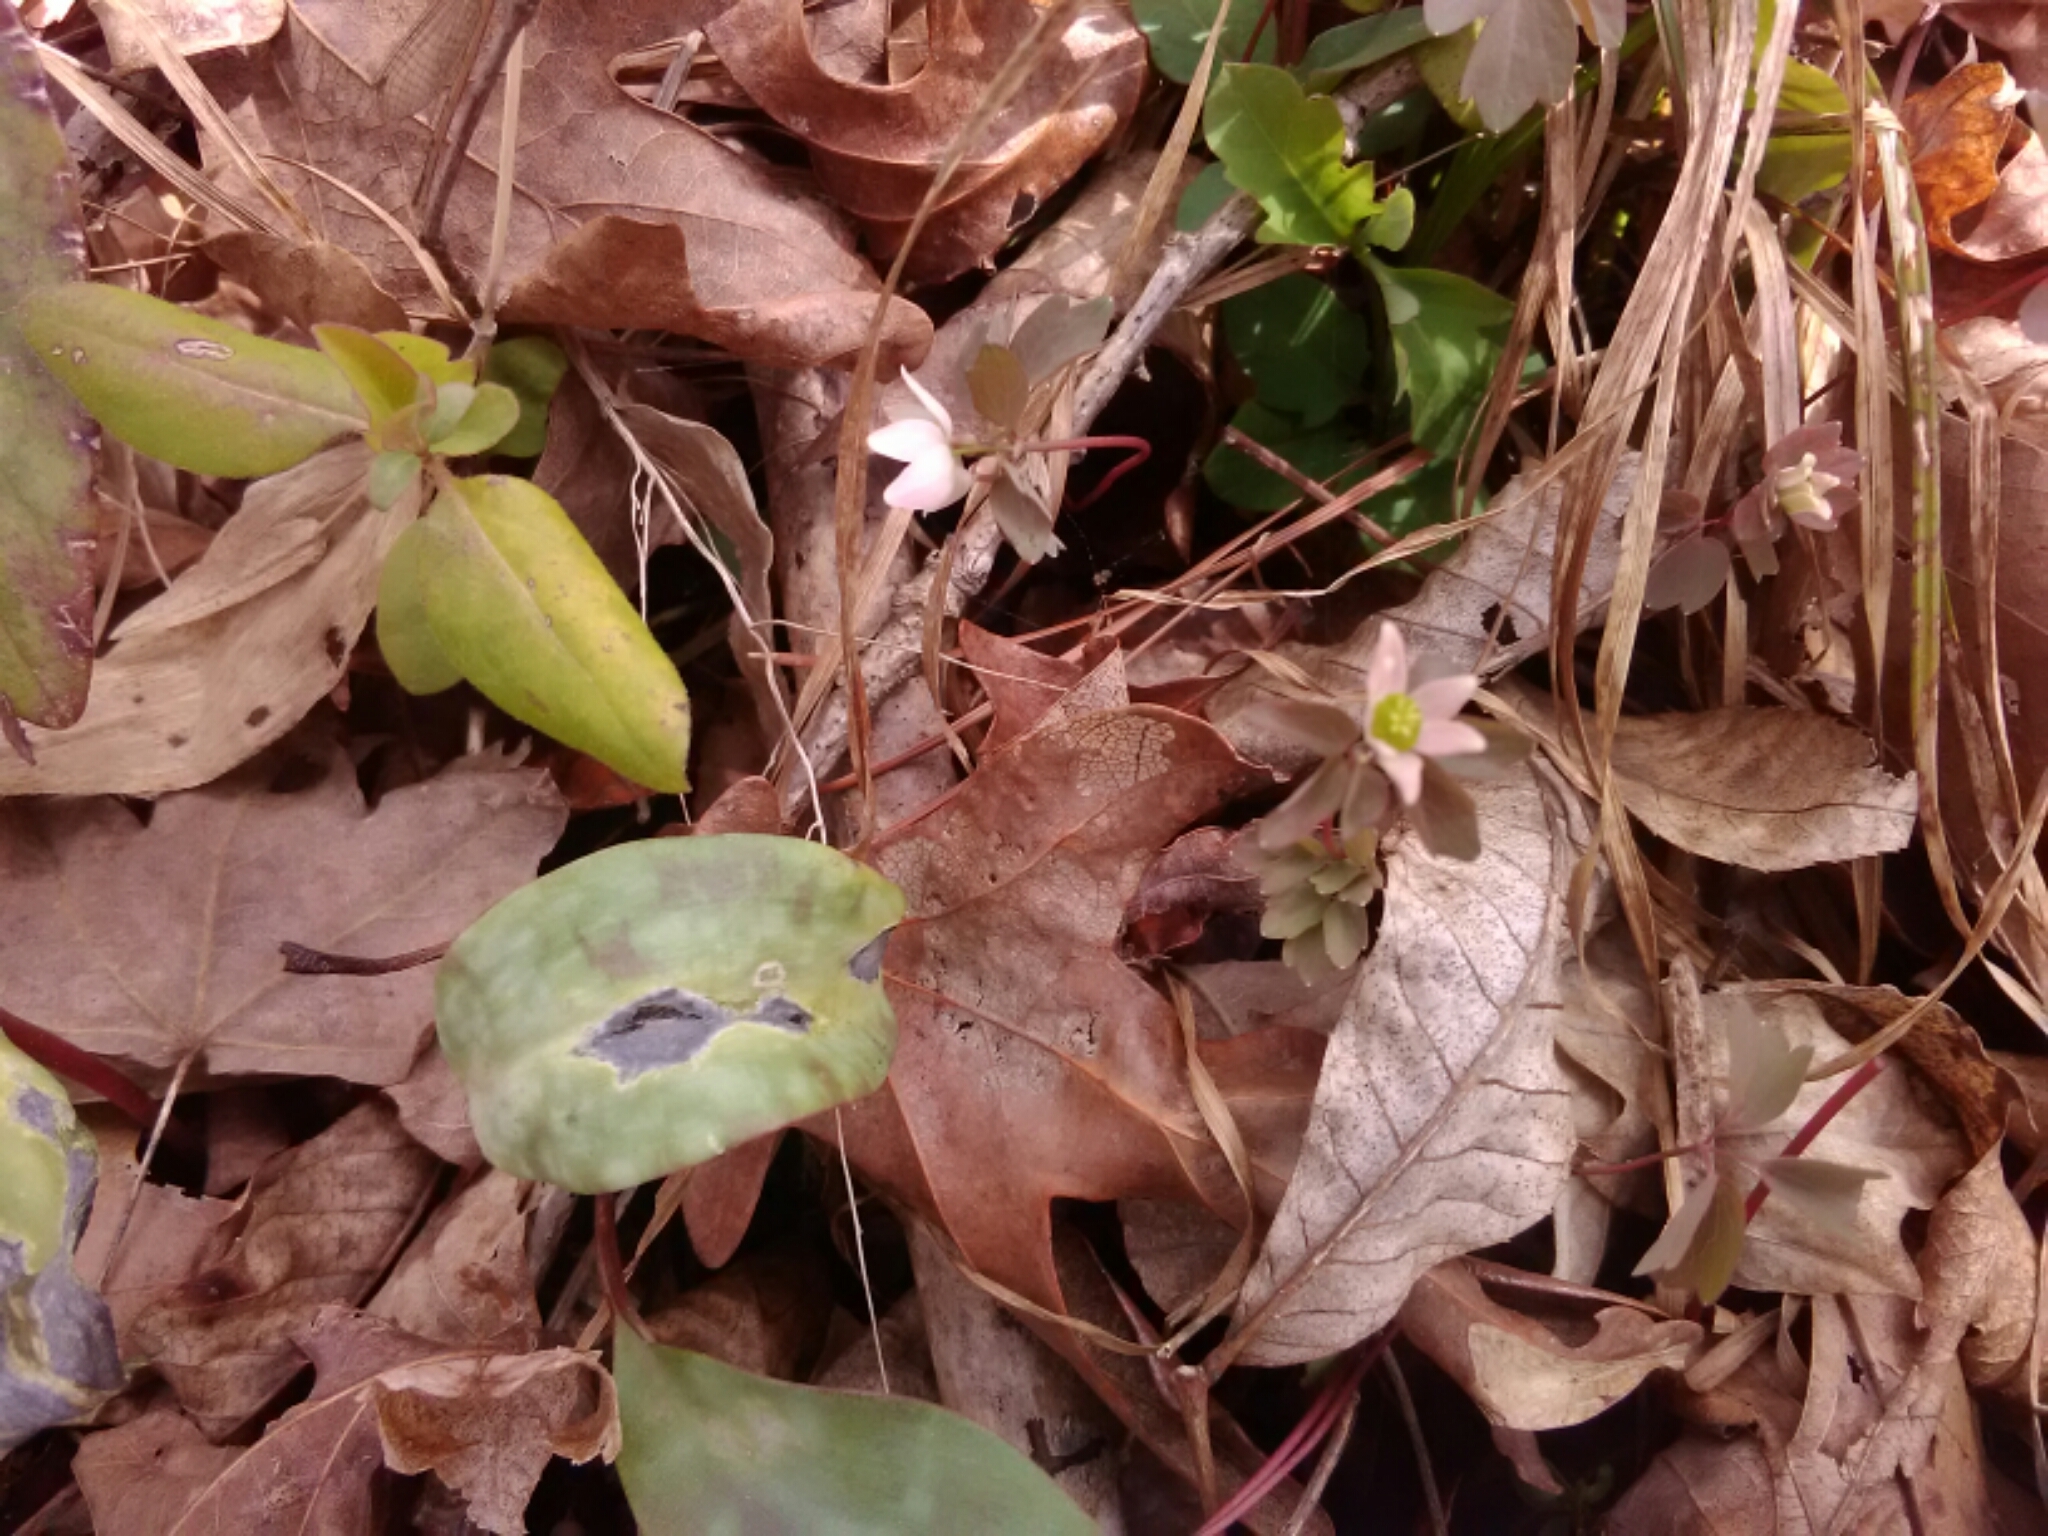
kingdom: Plantae
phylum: Tracheophyta
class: Magnoliopsida
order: Ranunculales
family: Ranunculaceae
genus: Thalictrum
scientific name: Thalictrum thalictroides
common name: Rue-anemone
